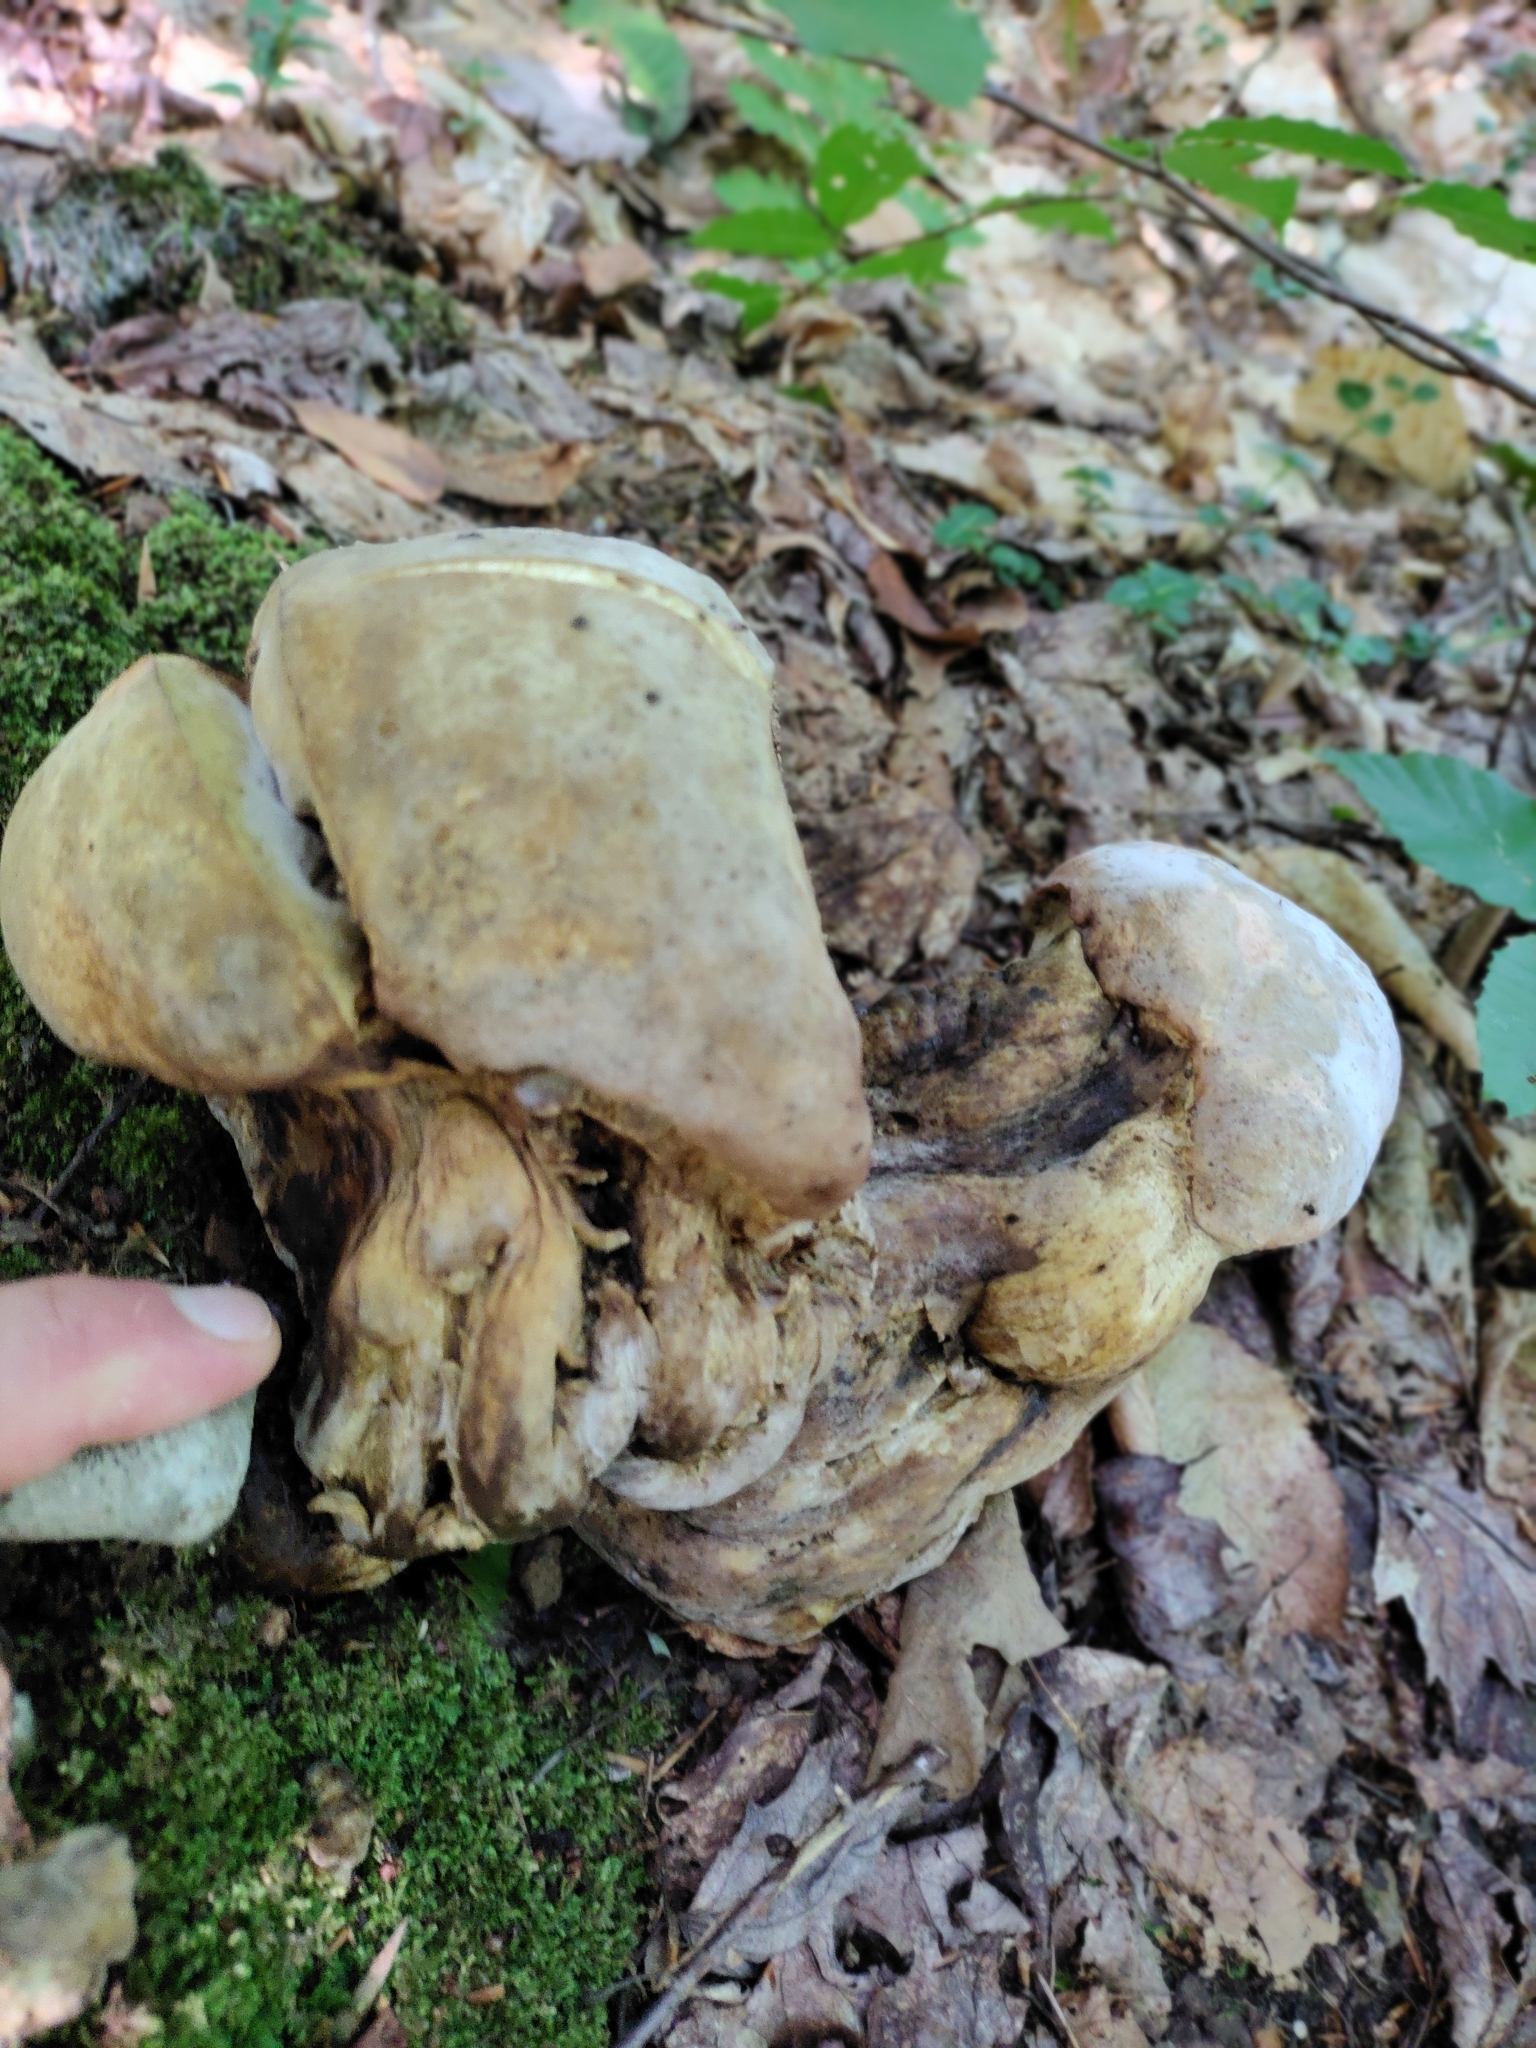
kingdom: Fungi
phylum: Ascomycota
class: Sordariomycetes
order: Hypocreales
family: Hypocreaceae
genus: Hypomyces
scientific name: Hypomyces melanocarpus
